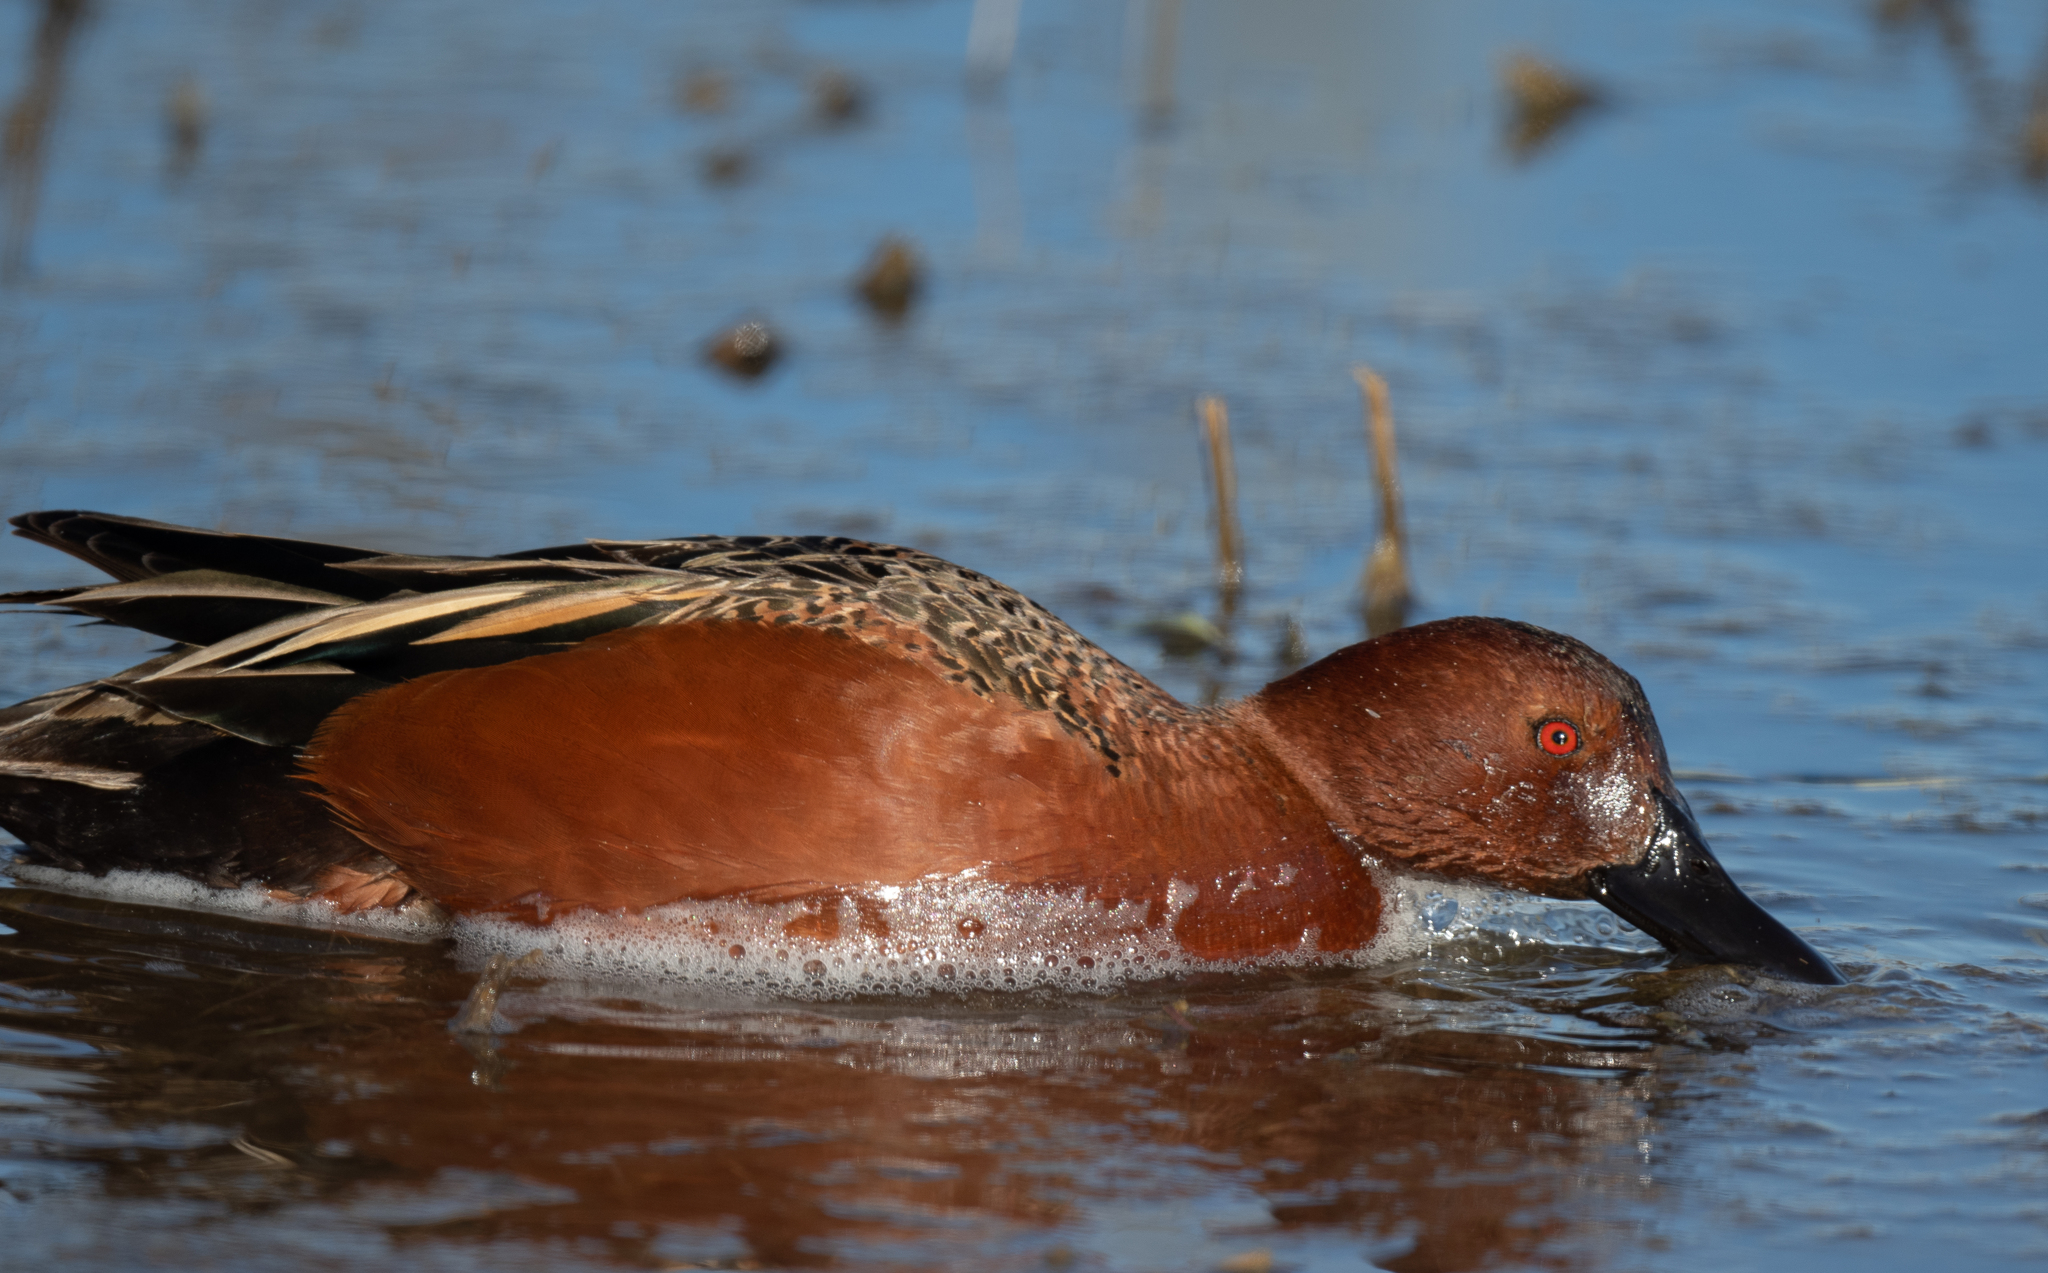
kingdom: Animalia
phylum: Chordata
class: Aves
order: Anseriformes
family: Anatidae
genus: Spatula
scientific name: Spatula cyanoptera
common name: Cinnamon teal
